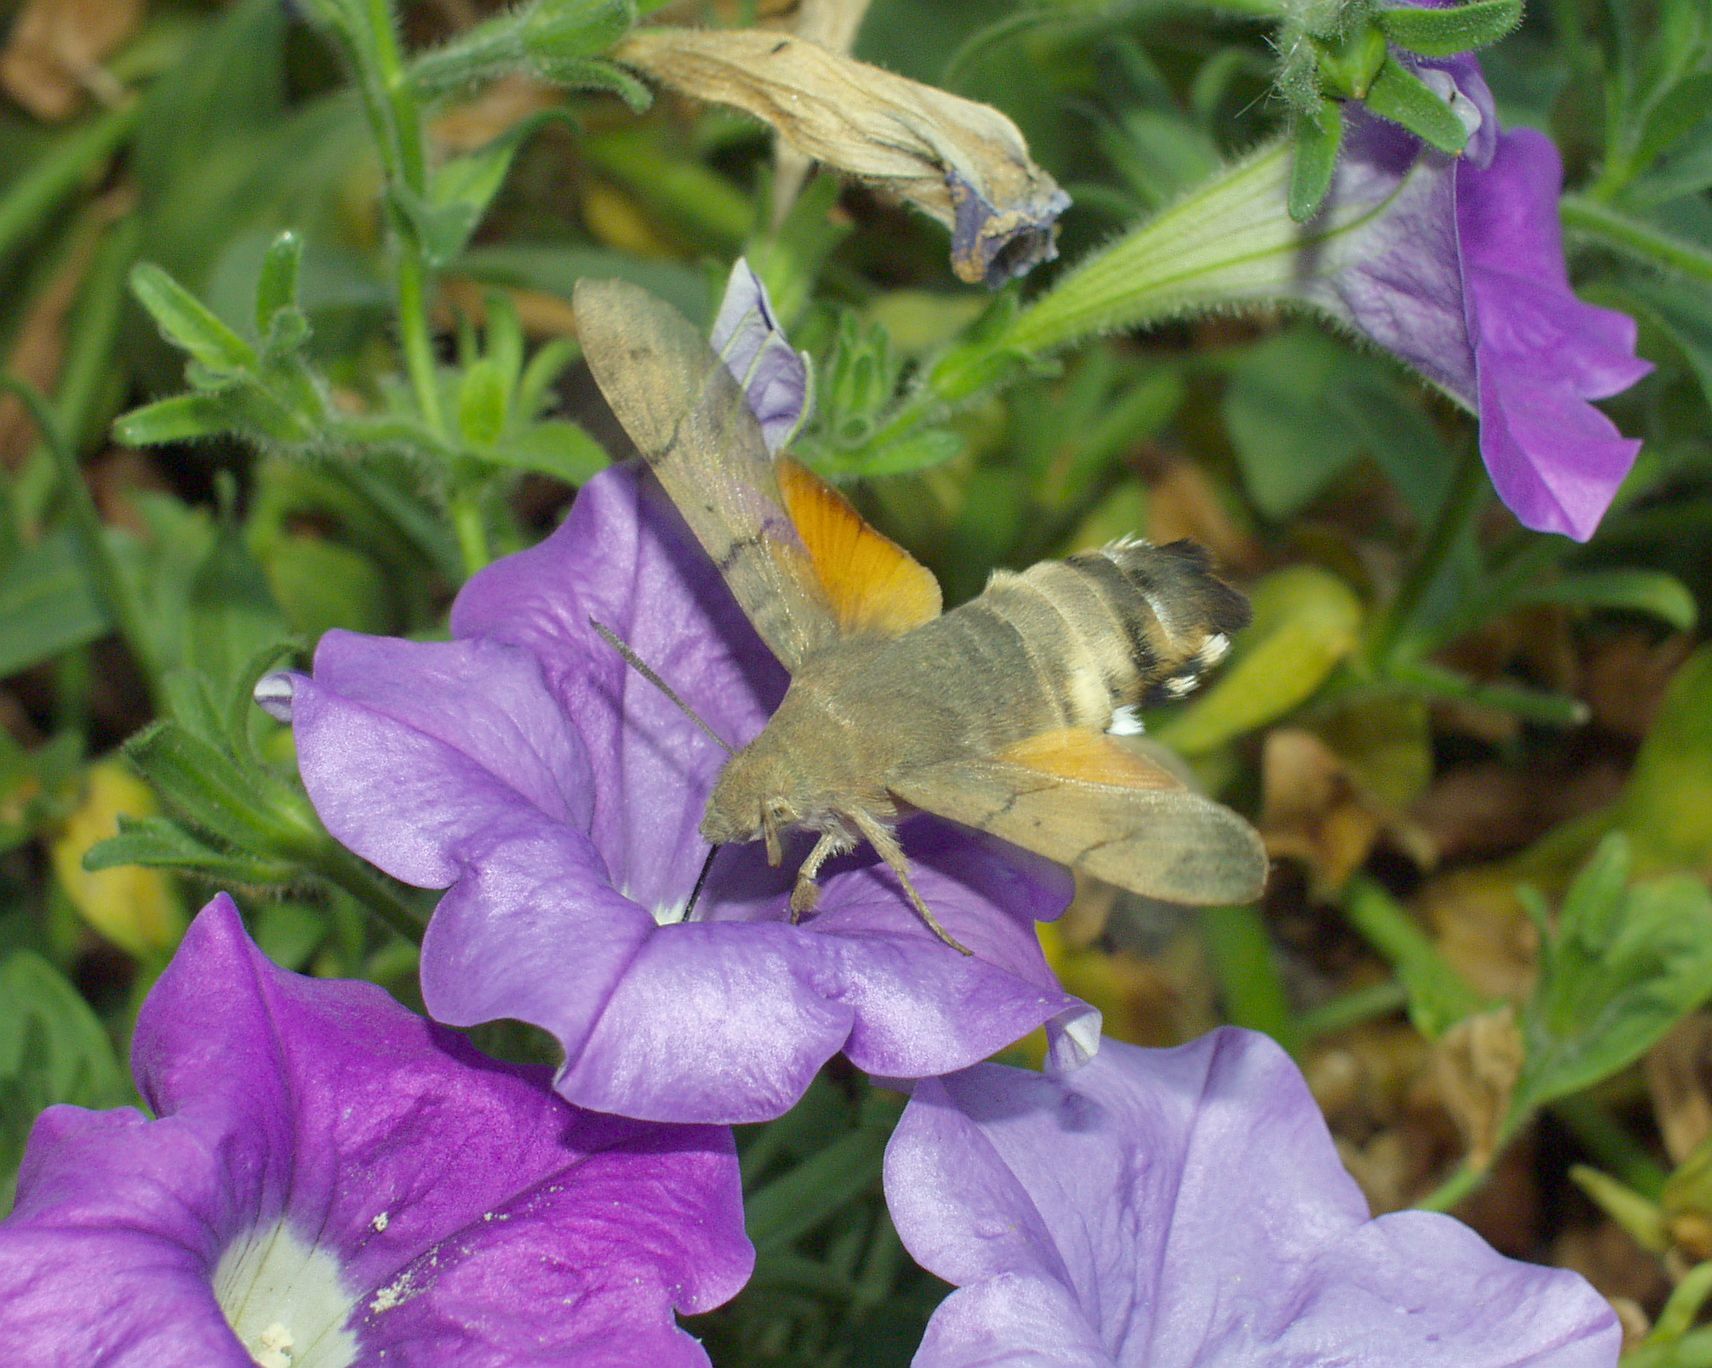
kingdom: Animalia
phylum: Arthropoda
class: Insecta
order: Lepidoptera
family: Sphingidae
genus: Macroglossum
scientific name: Macroglossum stellatarum
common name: Humming-bird hawk-moth
